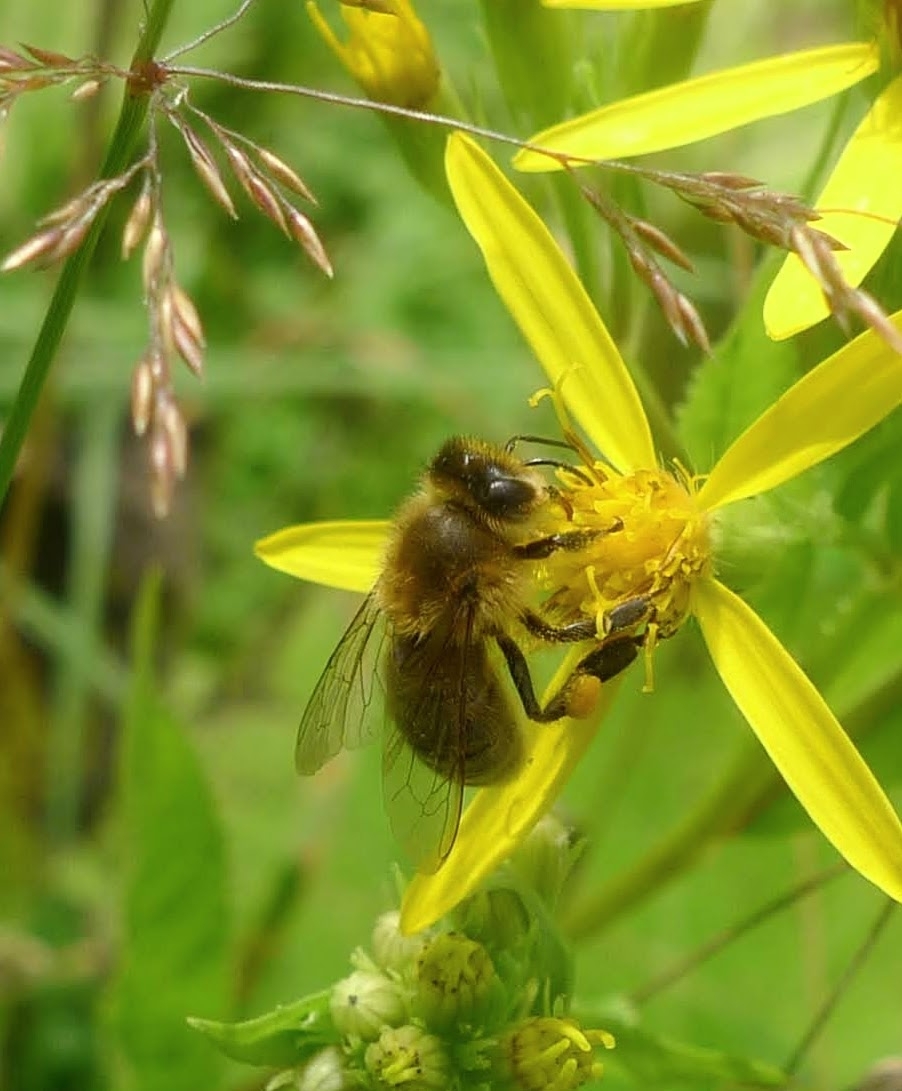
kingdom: Animalia
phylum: Arthropoda
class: Insecta
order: Hymenoptera
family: Apidae
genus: Apis
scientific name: Apis mellifera
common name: Honey bee
